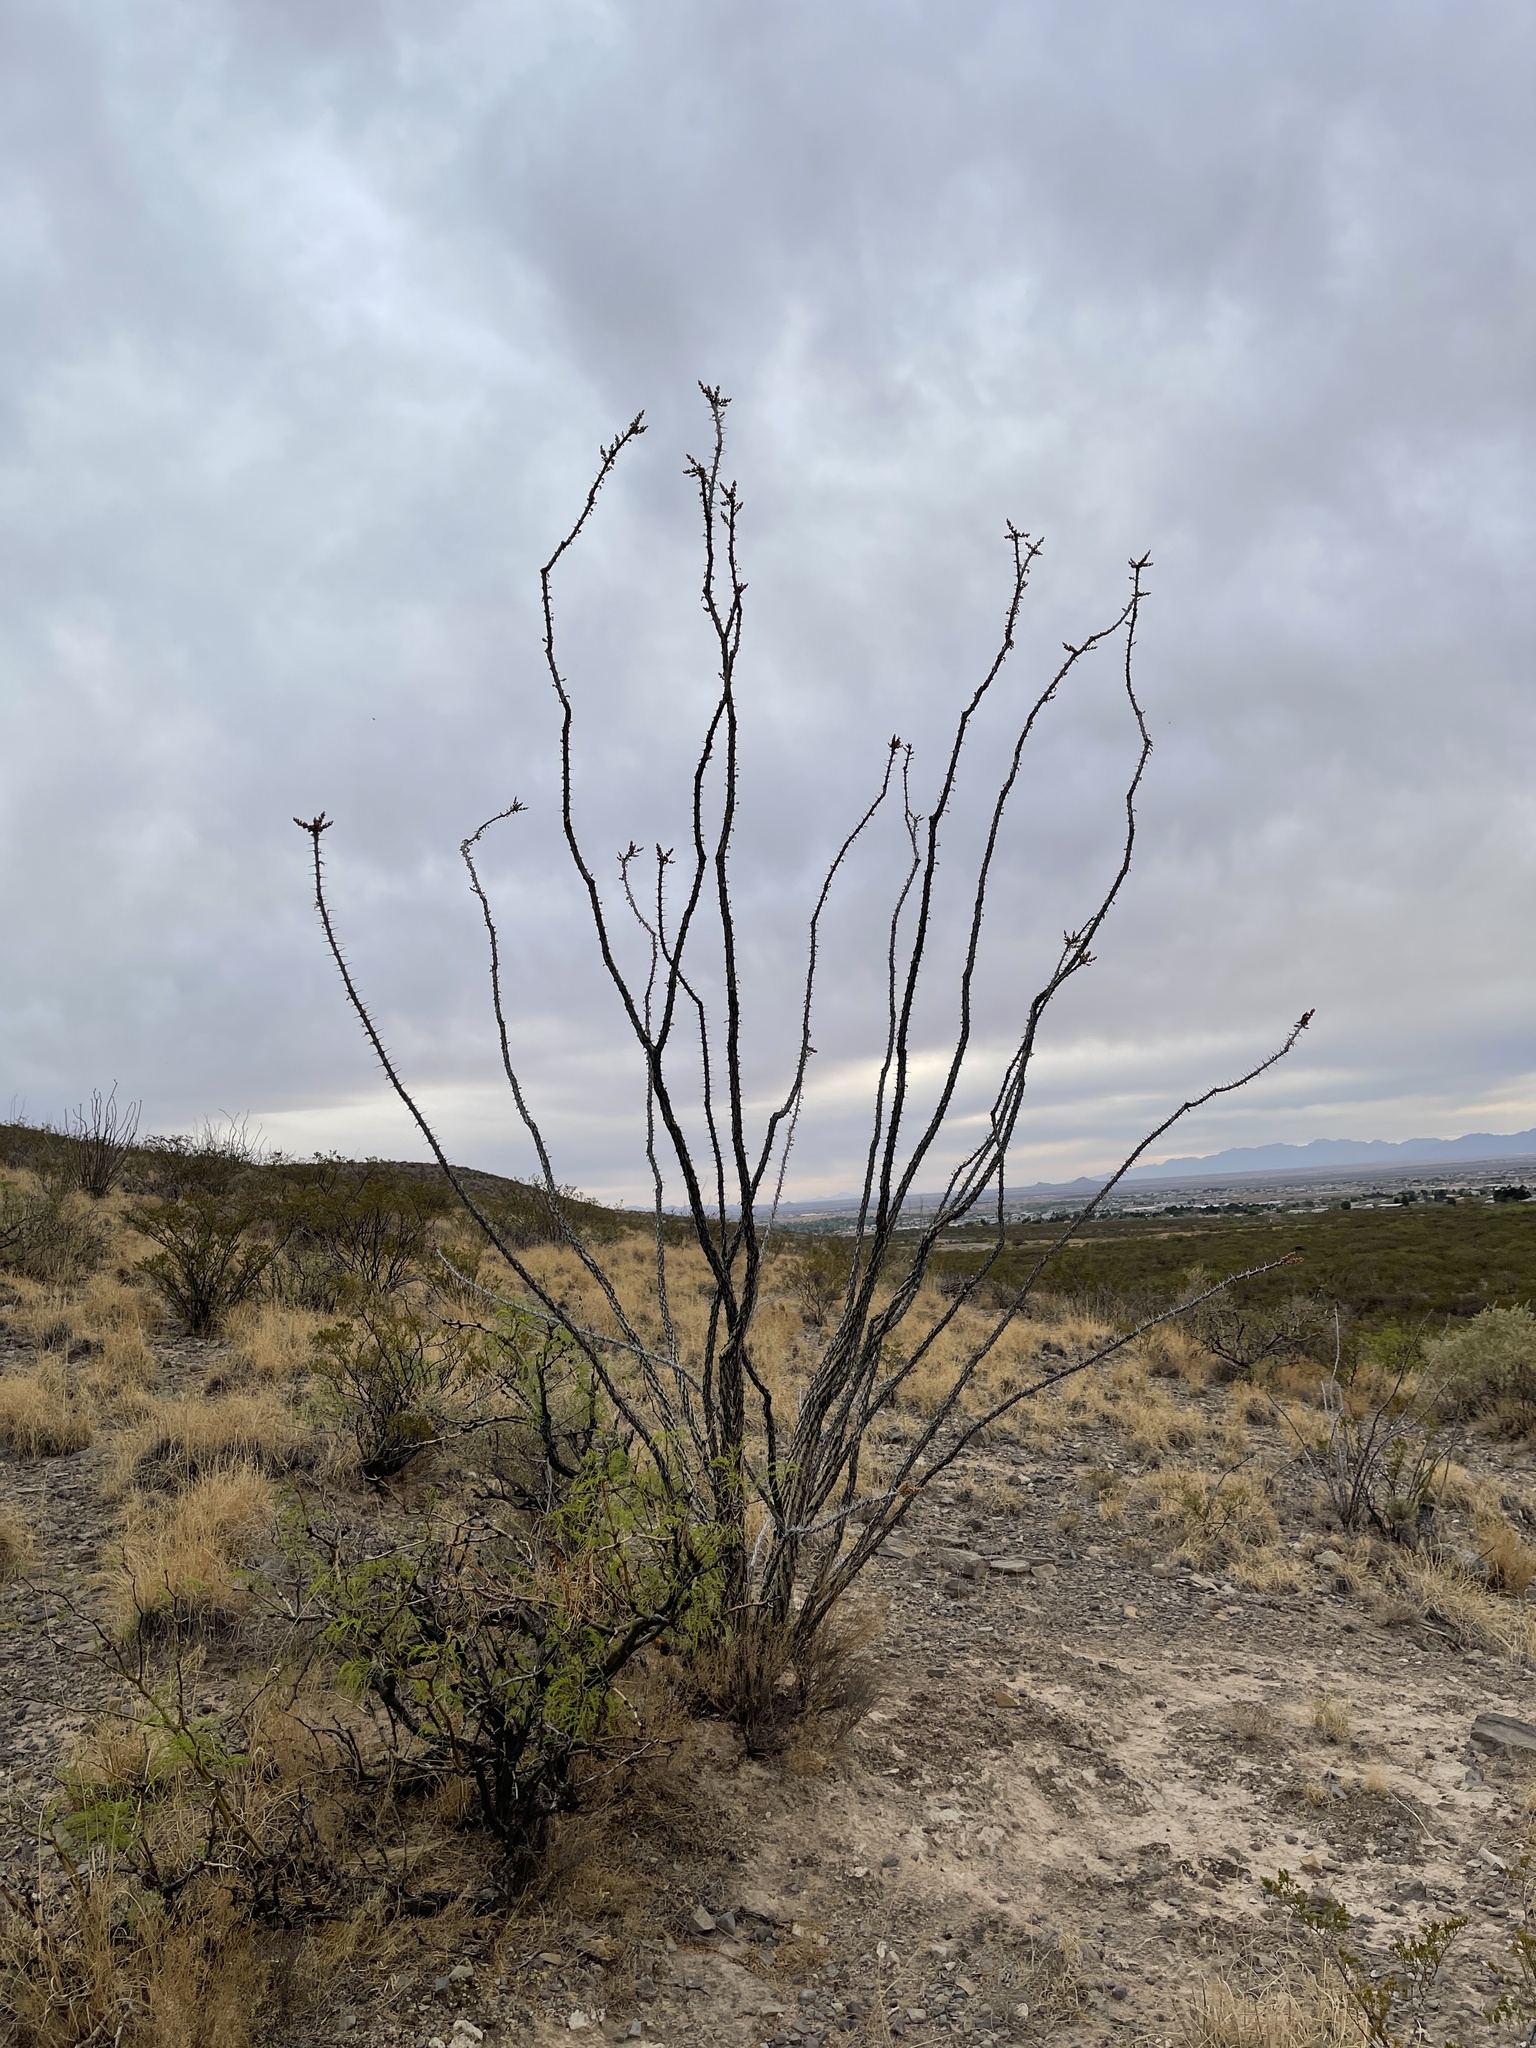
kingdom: Plantae
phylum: Tracheophyta
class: Magnoliopsida
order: Ericales
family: Fouquieriaceae
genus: Fouquieria
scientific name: Fouquieria splendens
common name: Vine-cactus
